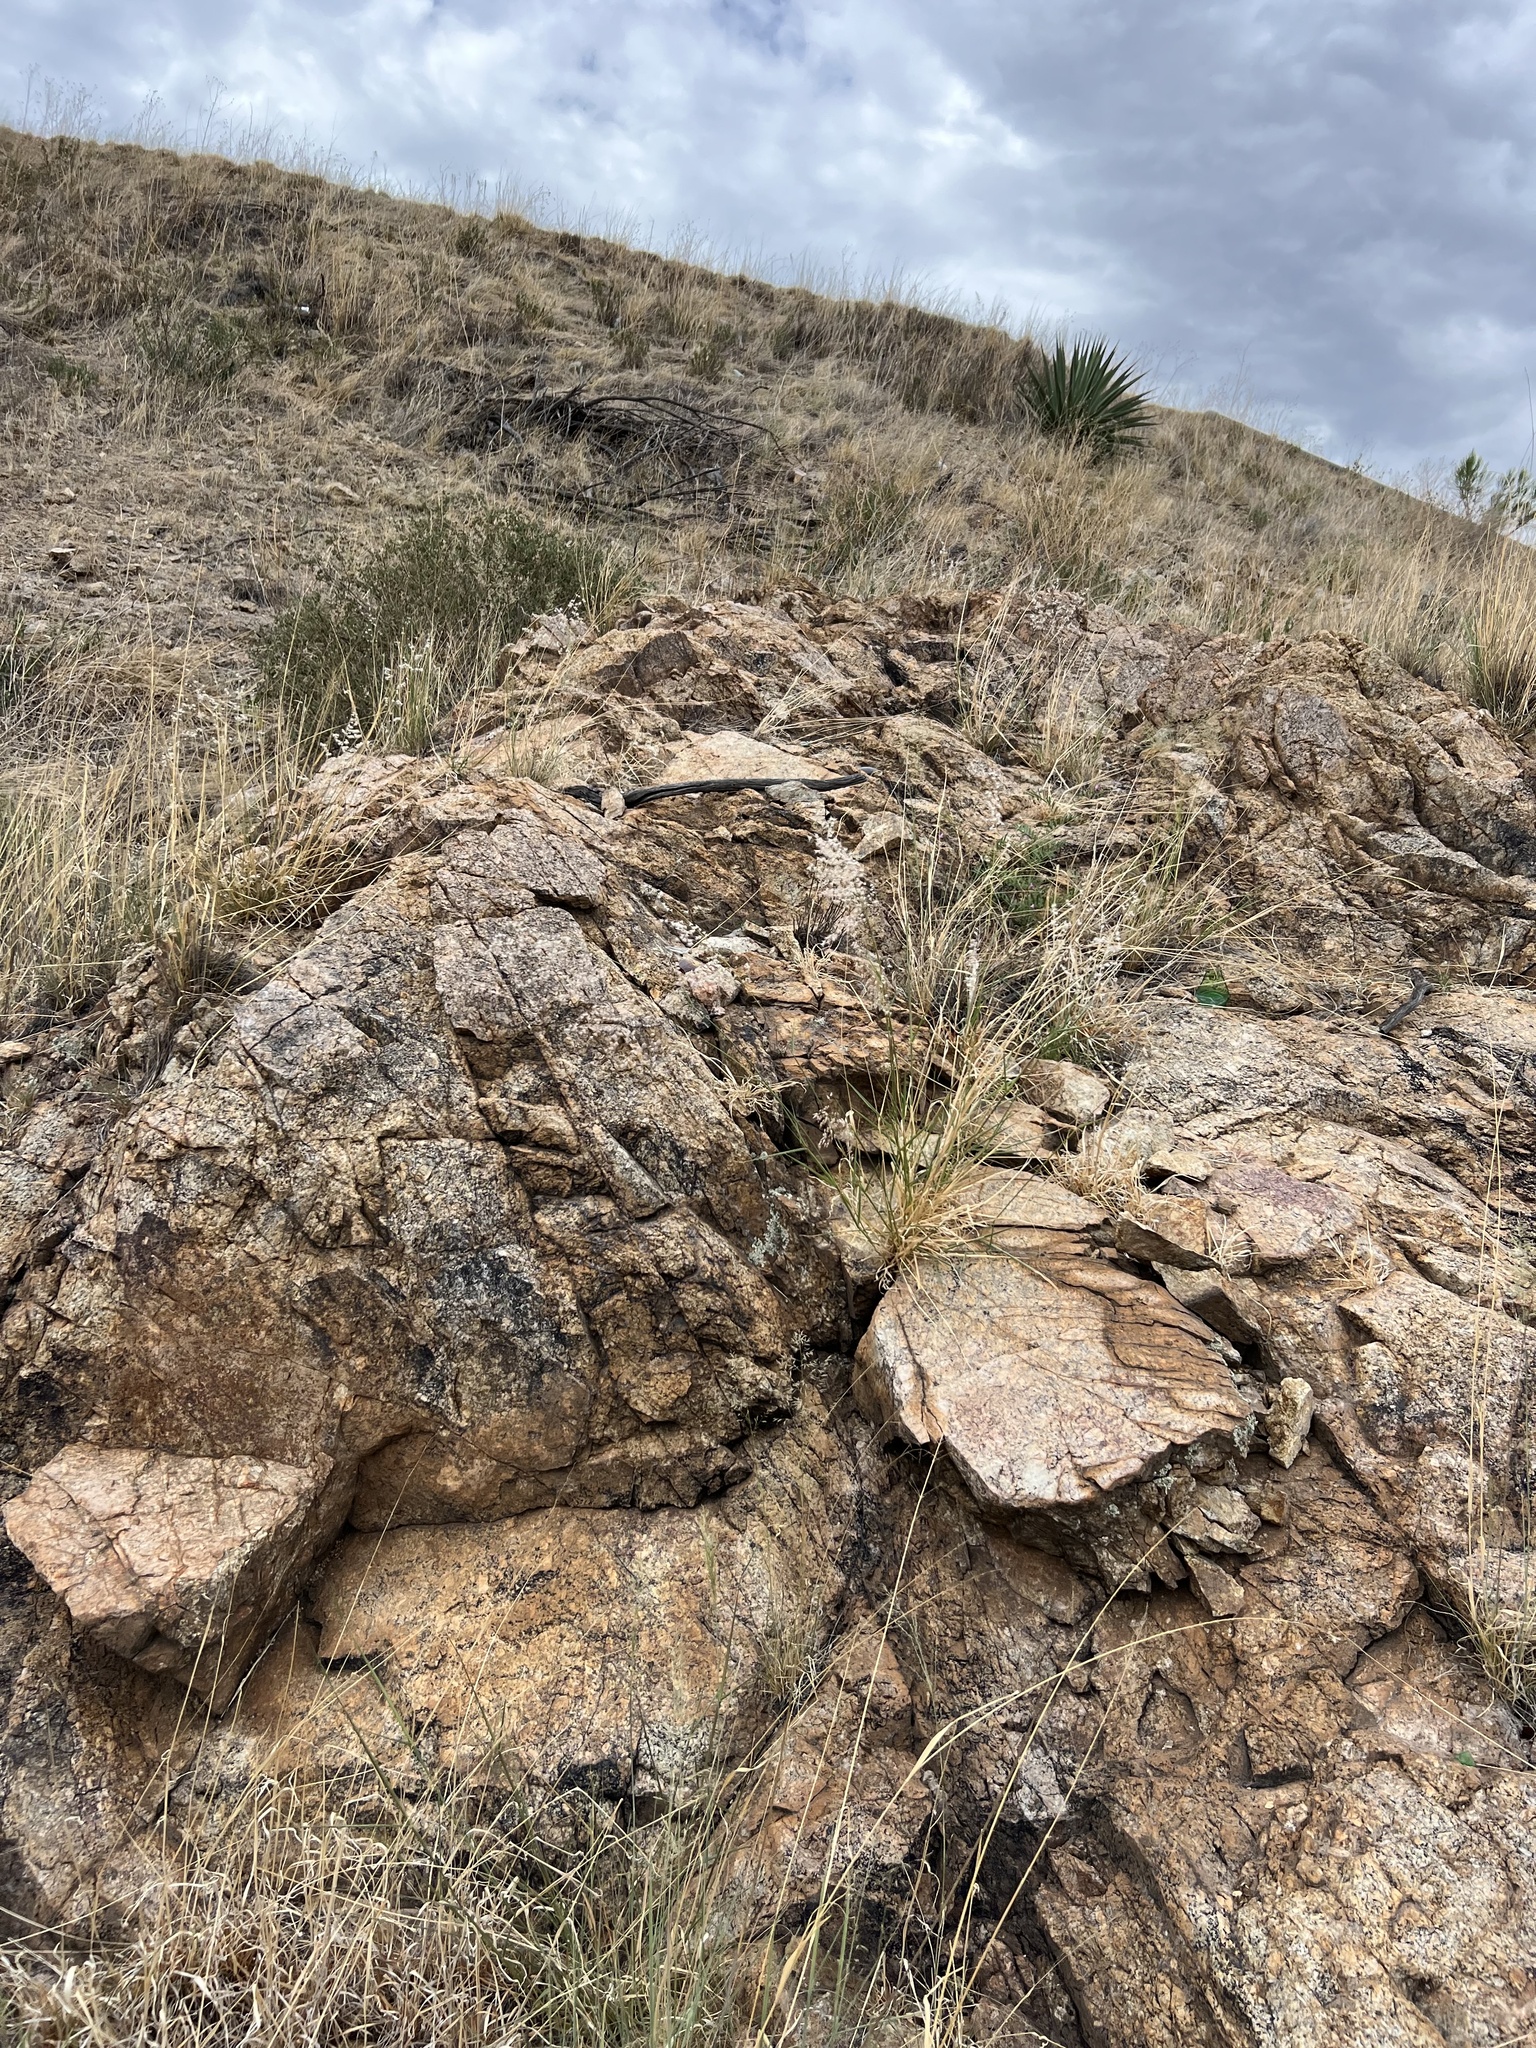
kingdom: Plantae
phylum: Tracheophyta
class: Liliopsida
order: Poales
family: Poaceae
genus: Melinis
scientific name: Melinis repens
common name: Rose natal grass
